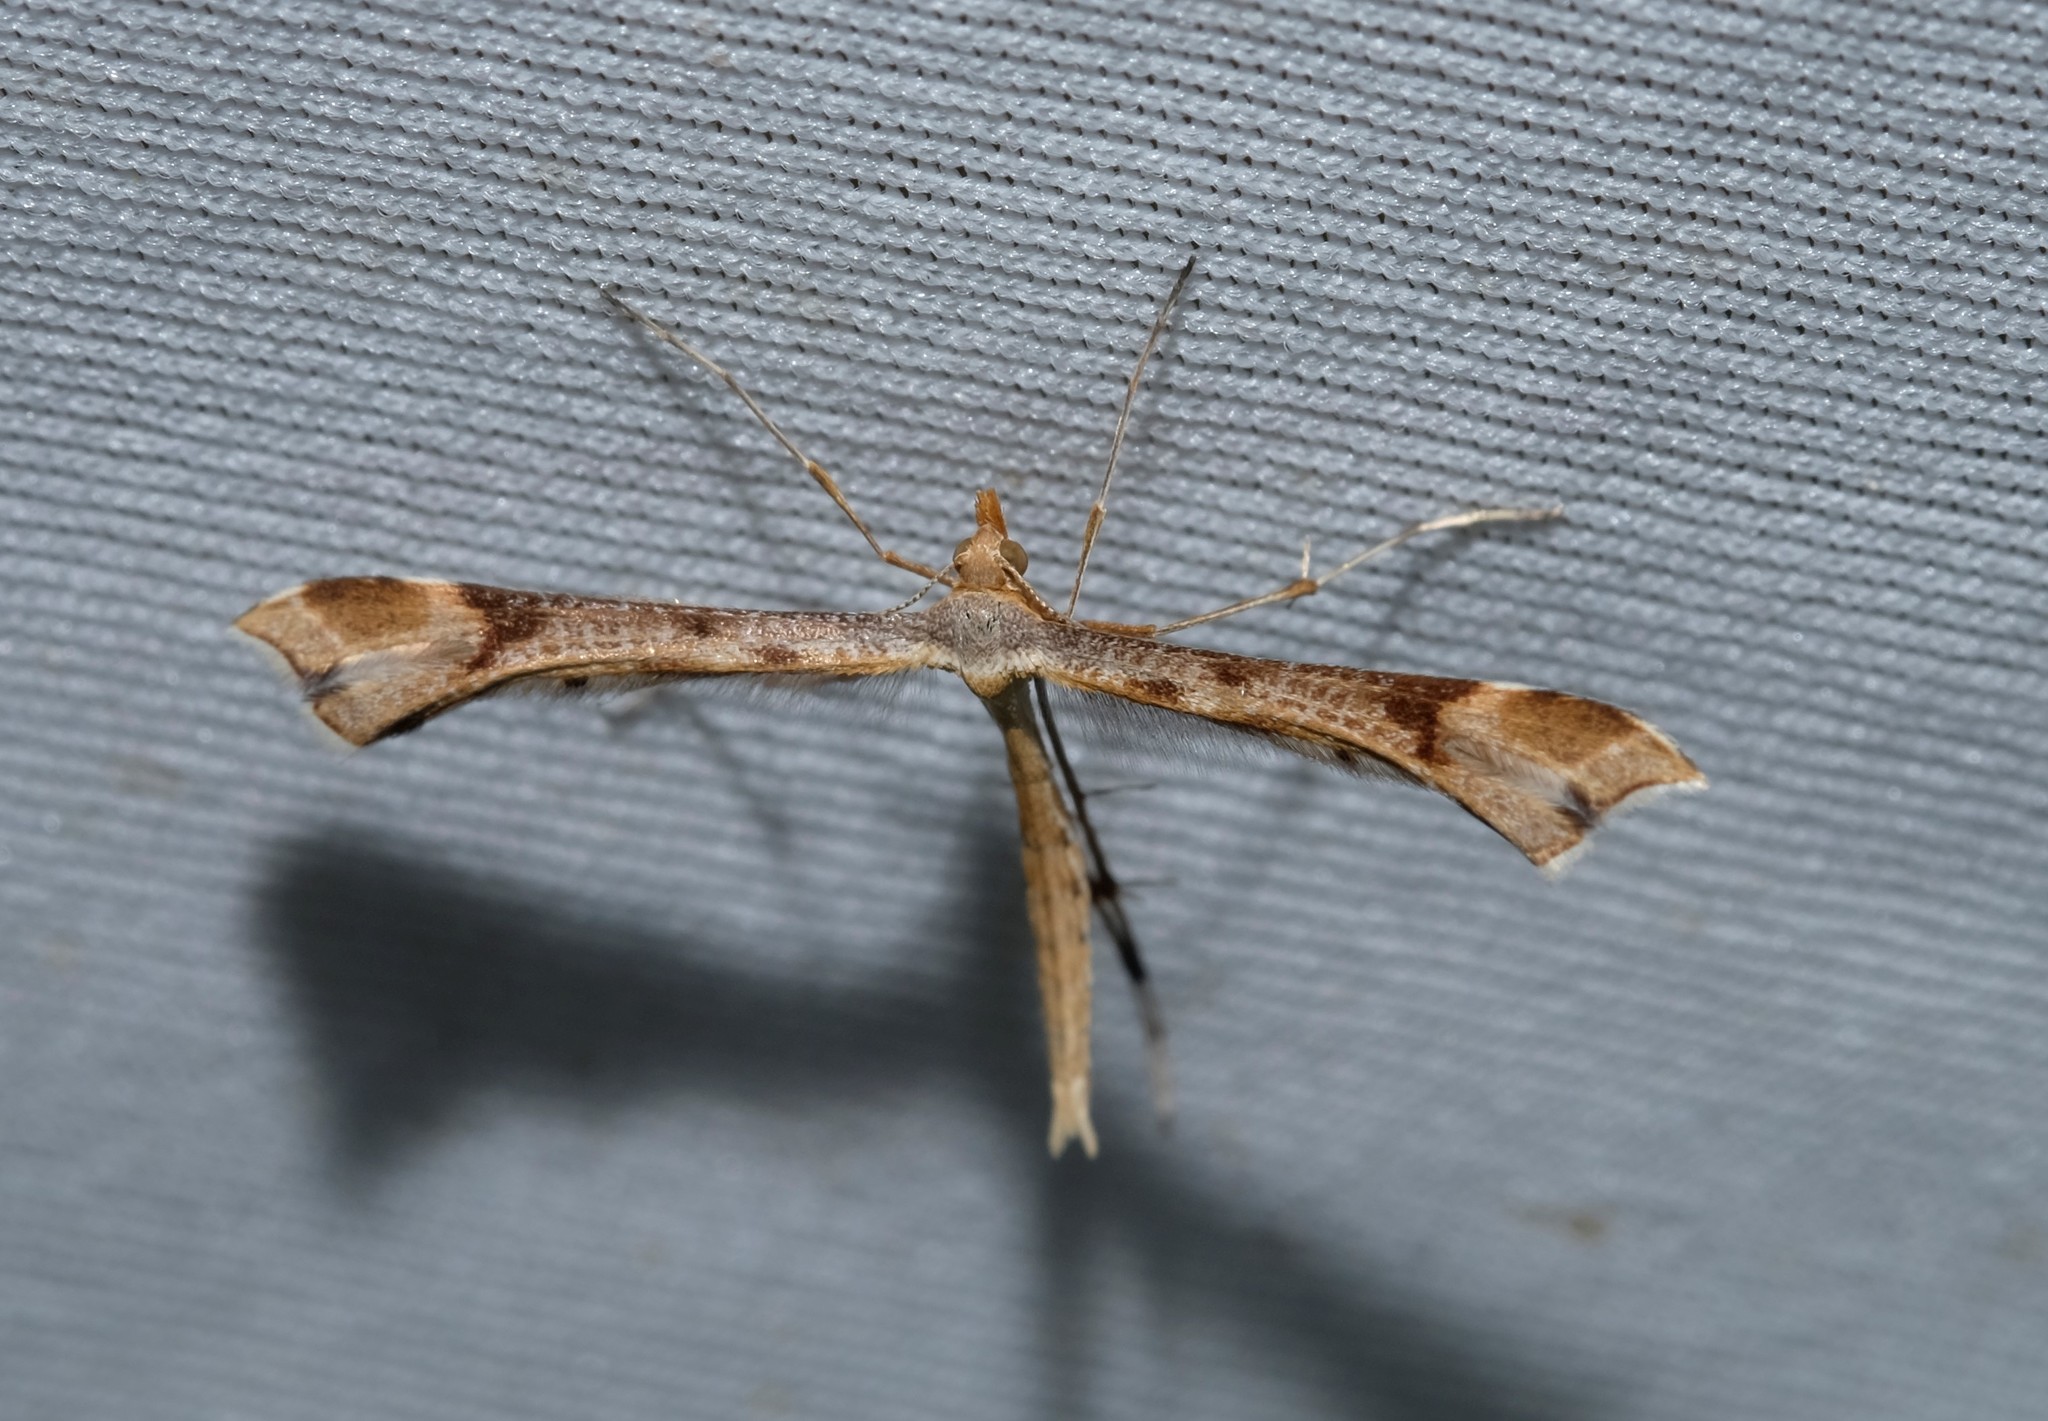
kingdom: Animalia
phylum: Arthropoda
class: Insecta
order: Lepidoptera
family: Pterophoridae
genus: Sinpunctiptilia
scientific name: Sinpunctiptilia emissalis
